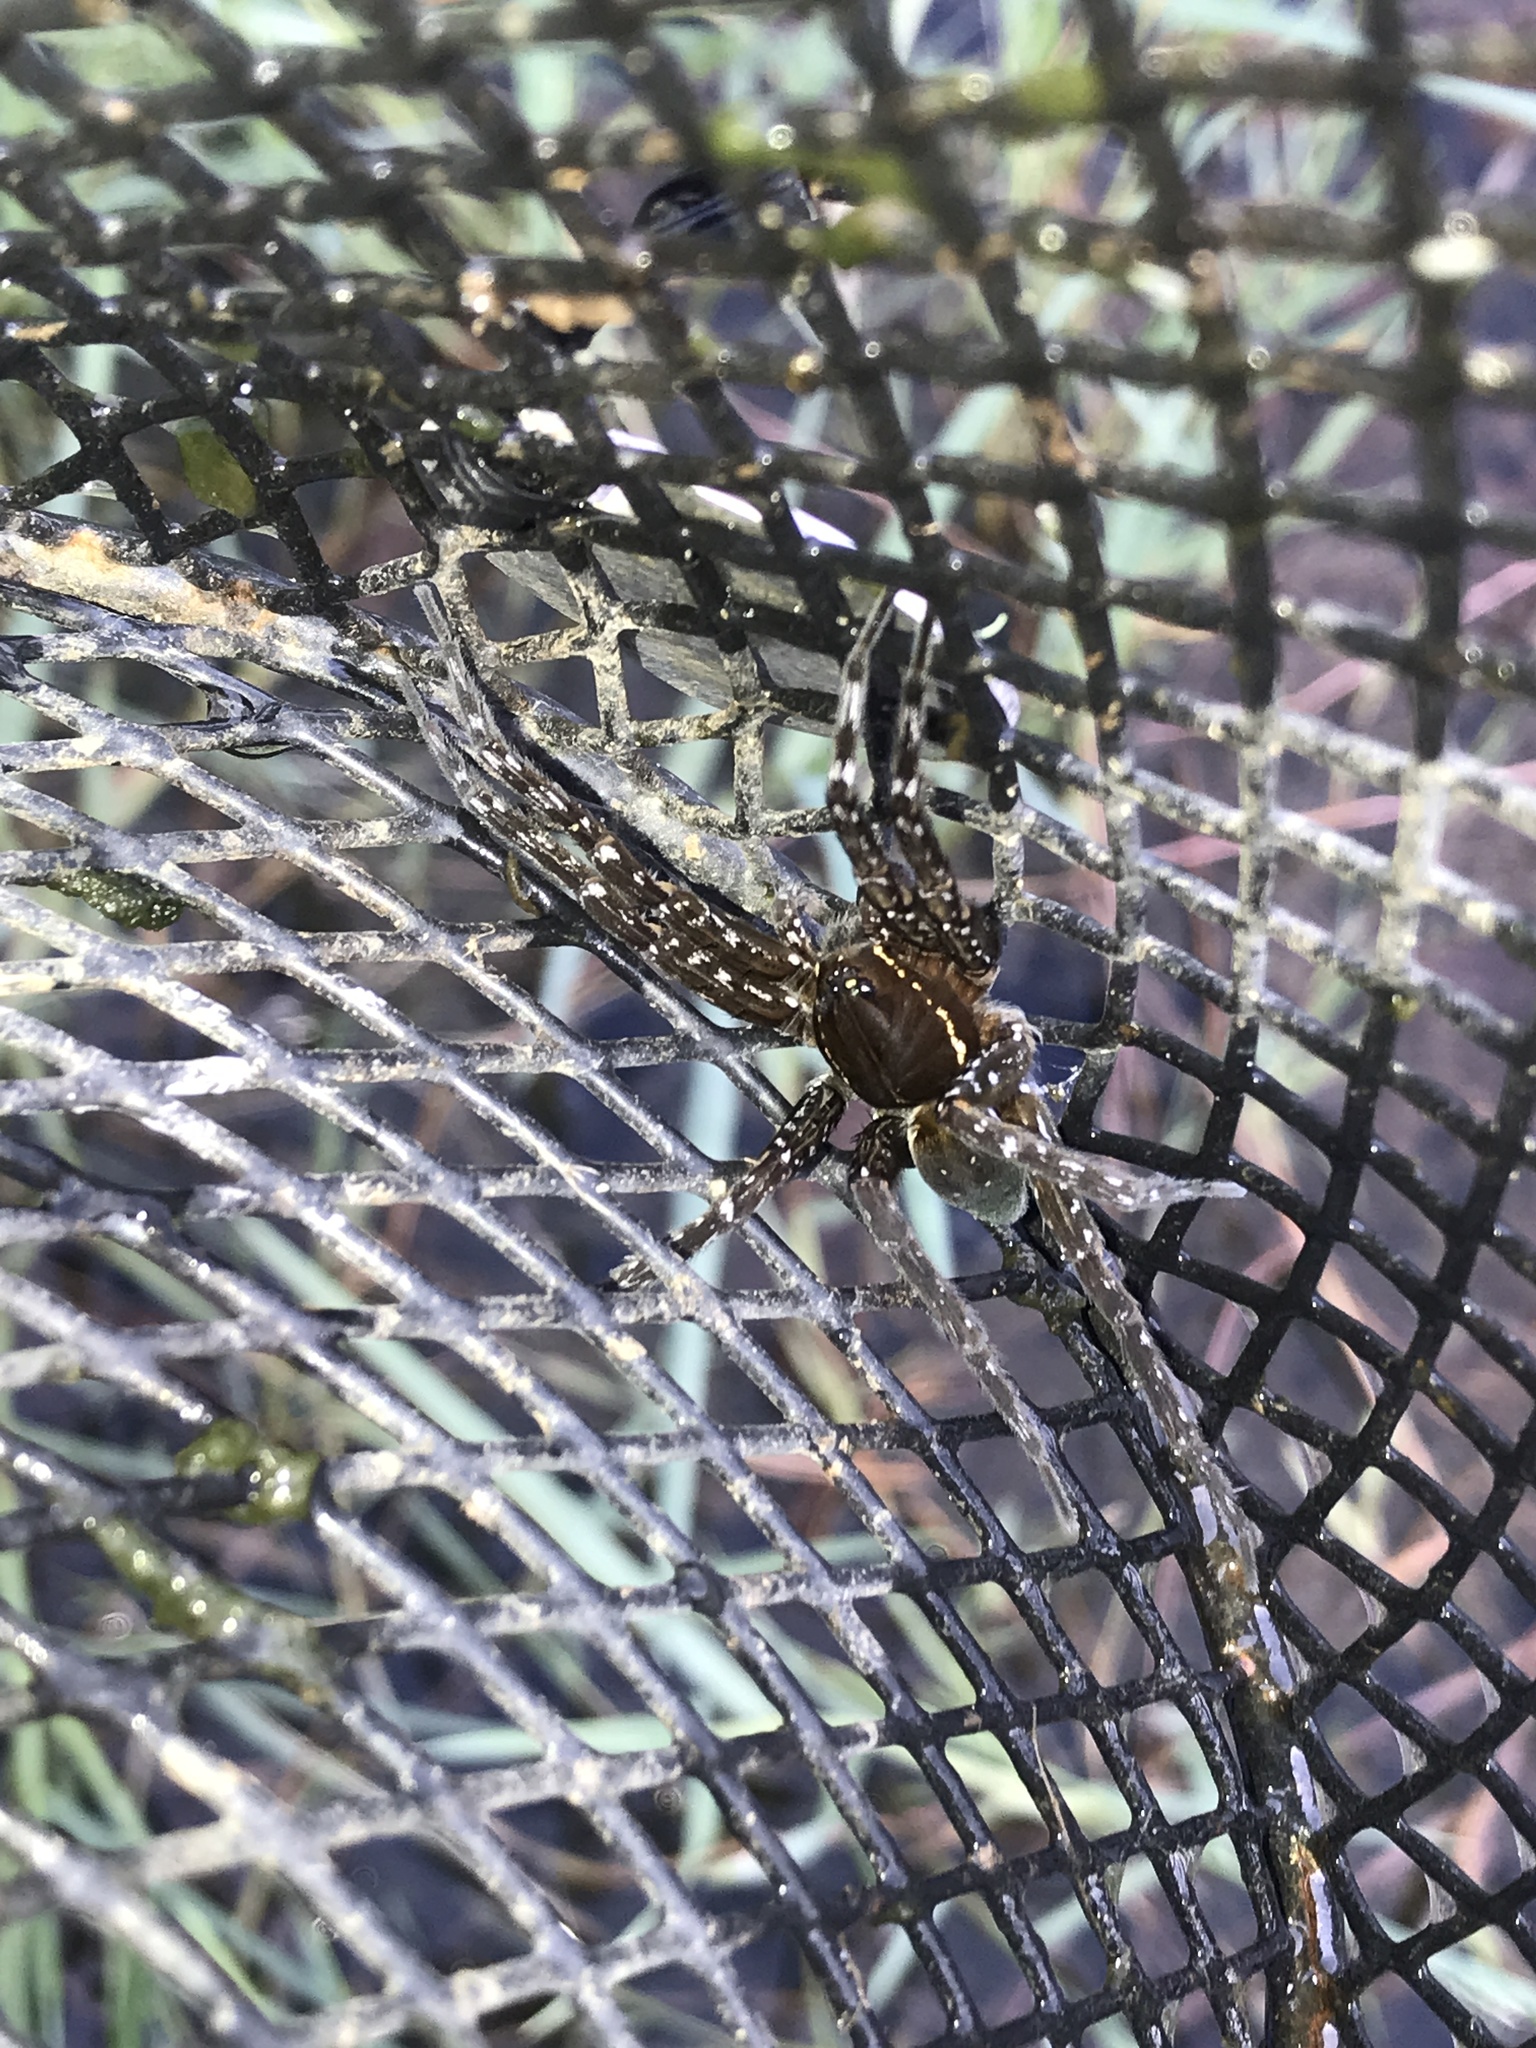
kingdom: Animalia
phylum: Arthropoda
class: Arachnida
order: Araneae
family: Pisauridae
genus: Dolomedes
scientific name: Dolomedes triton
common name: Six-spotted fishing spider
